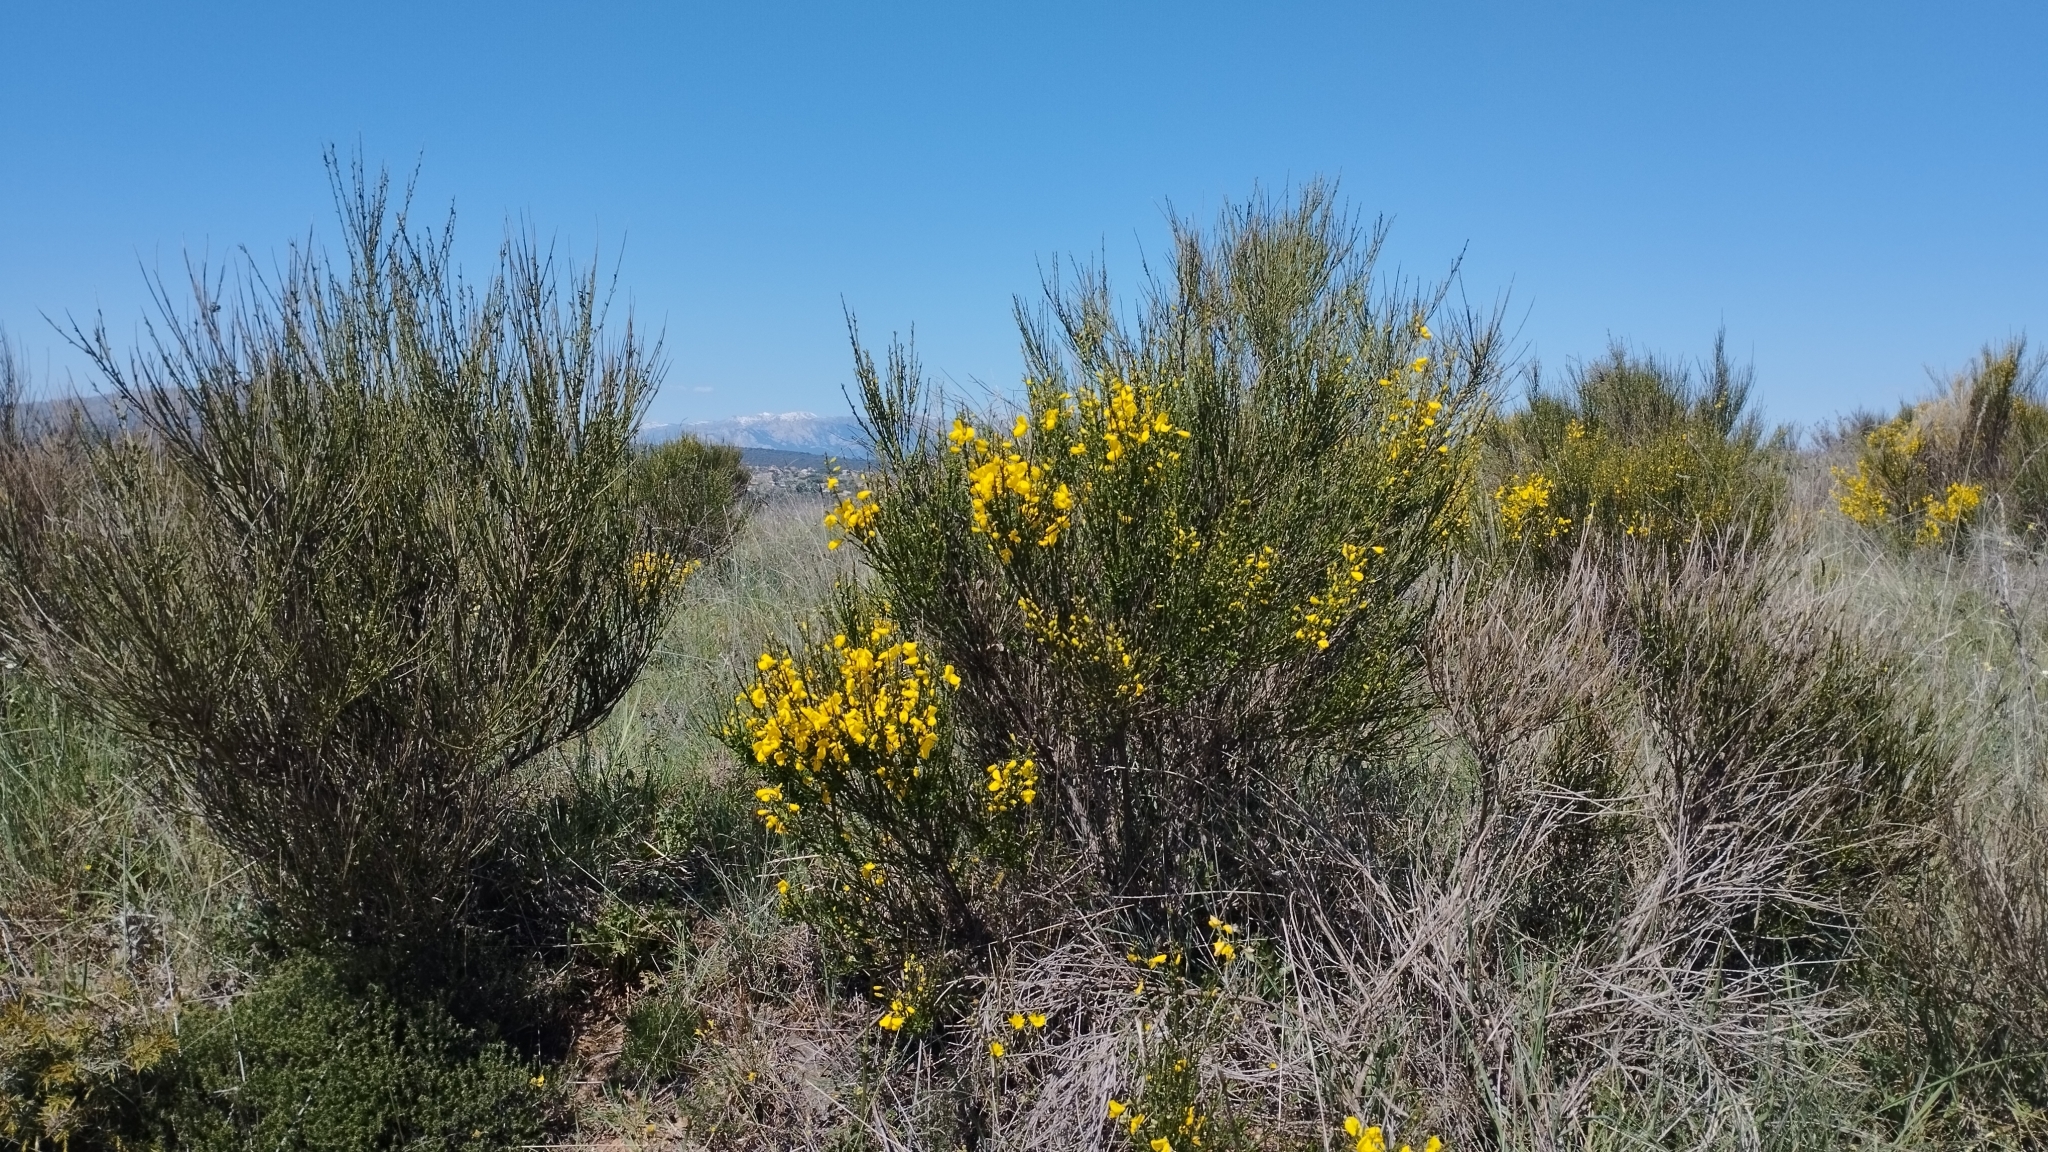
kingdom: Plantae
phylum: Tracheophyta
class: Magnoliopsida
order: Fabales
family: Fabaceae
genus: Cytisus
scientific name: Cytisus scoparius
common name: Scotch broom
